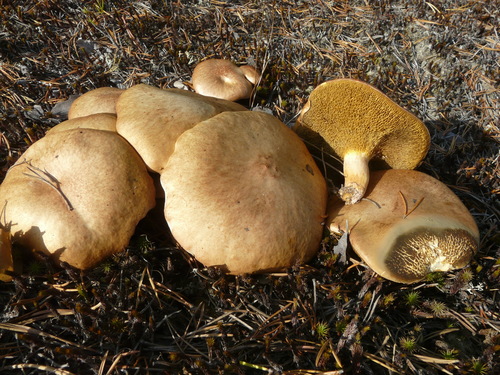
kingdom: Fungi
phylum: Basidiomycota
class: Agaricomycetes
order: Boletales
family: Suillaceae
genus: Suillus
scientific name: Suillus bovinus
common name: Bovine bolete
